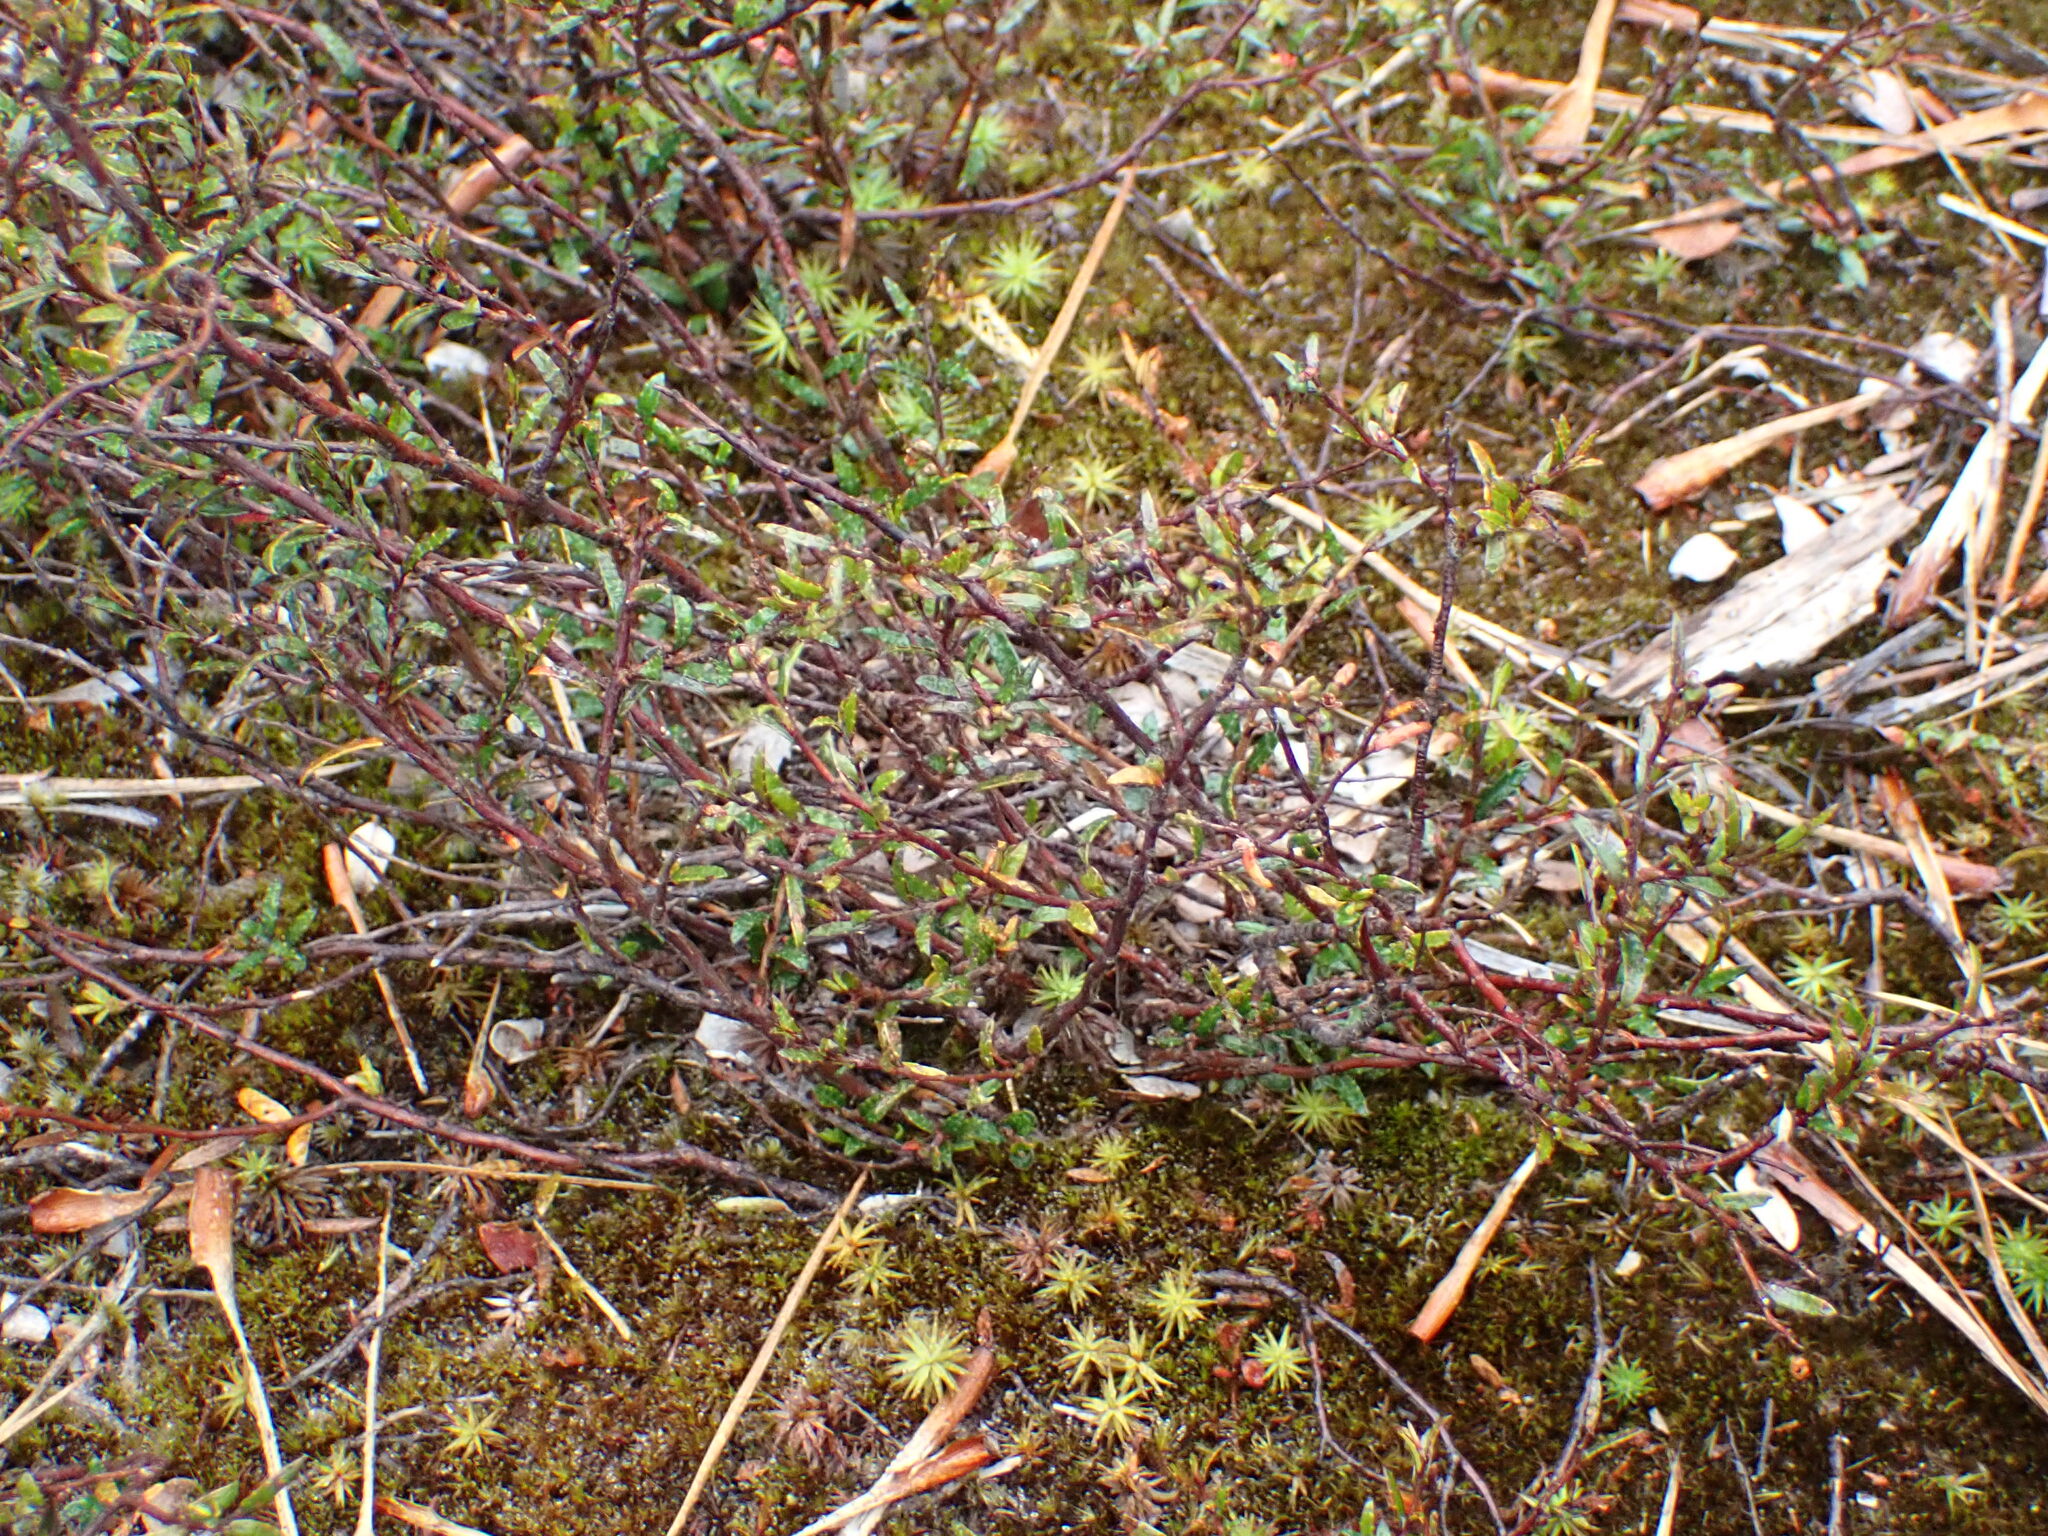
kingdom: Plantae
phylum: Tracheophyta
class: Magnoliopsida
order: Ericales
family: Ericaceae
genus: Gaultheria
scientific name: Gaultheria macrostigma
